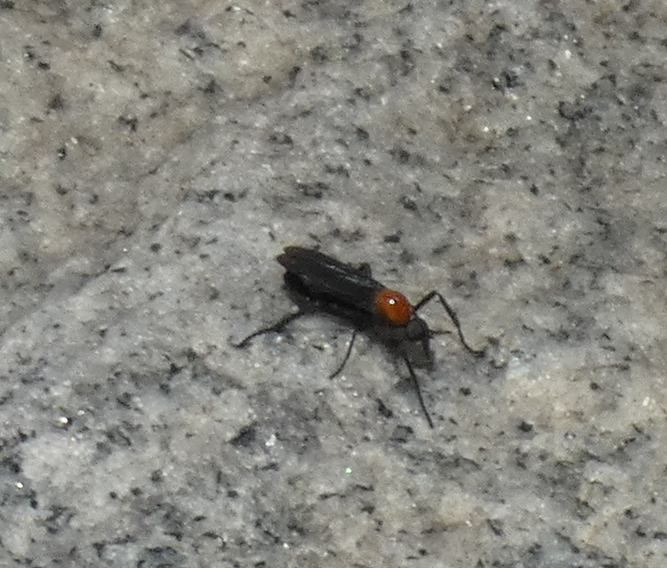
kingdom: Animalia
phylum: Arthropoda
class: Insecta
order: Diptera
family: Bibionidae
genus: Plecia
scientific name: Plecia nearctica
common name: March fly
